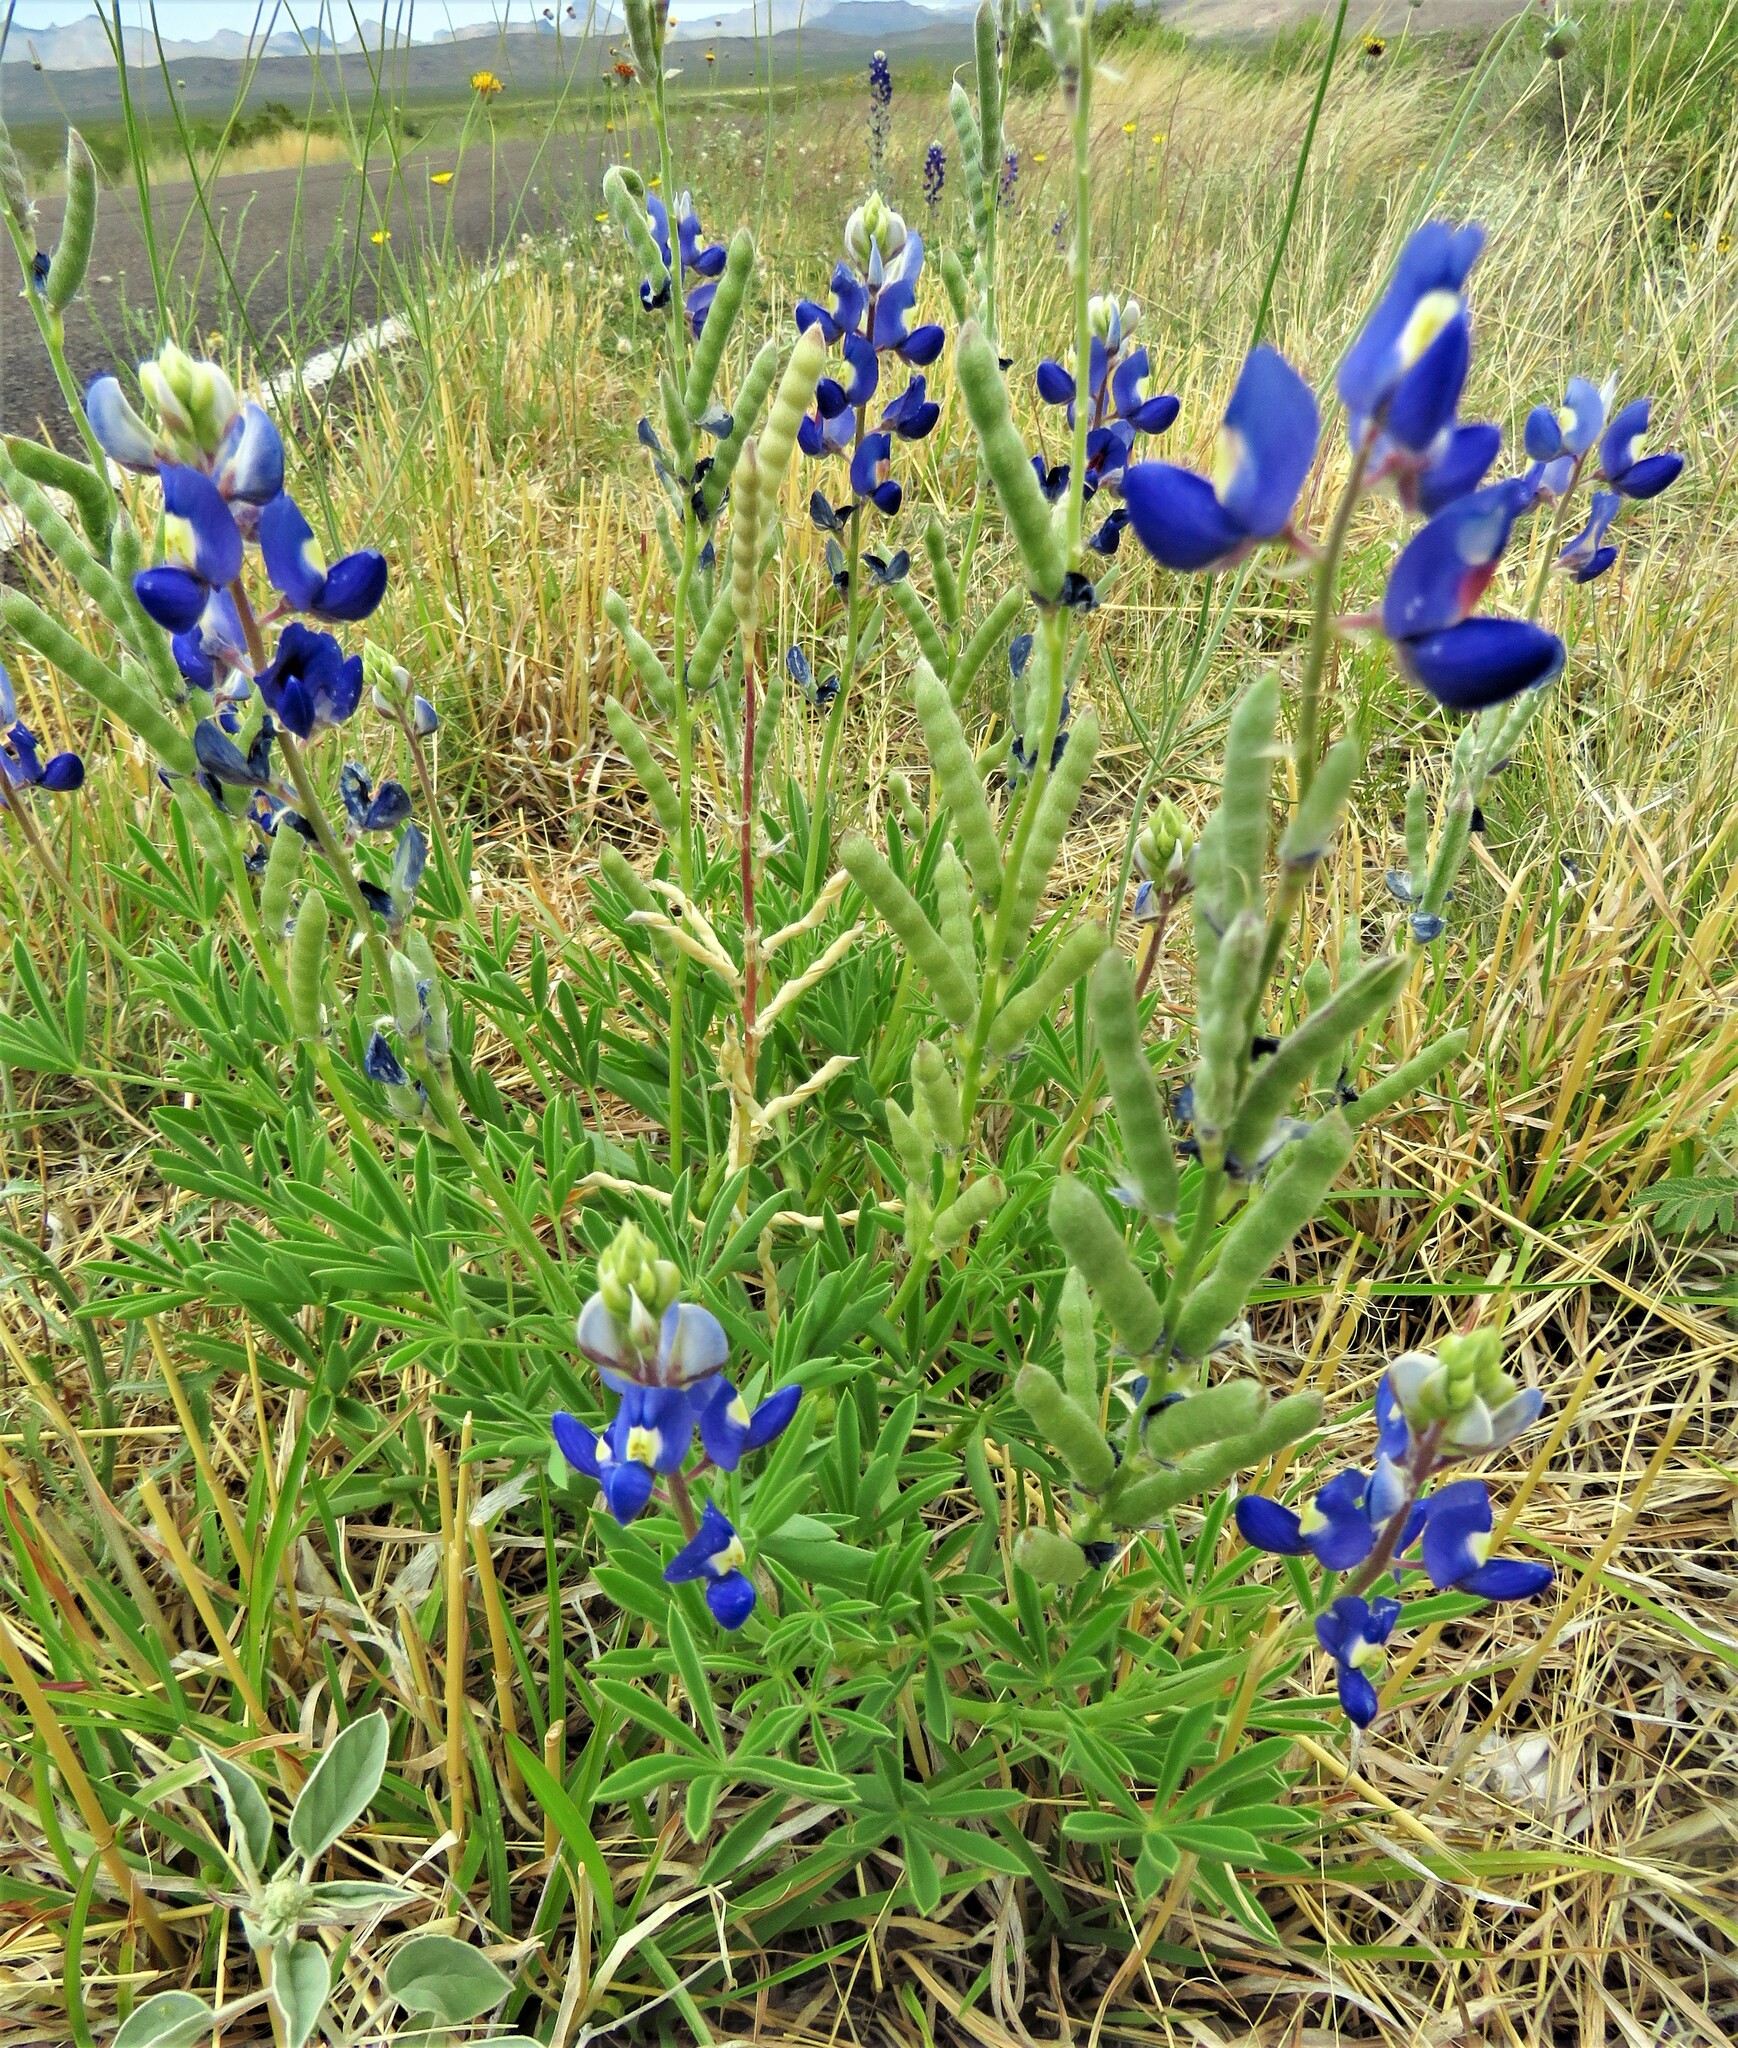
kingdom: Plantae
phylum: Tracheophyta
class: Magnoliopsida
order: Fabales
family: Fabaceae
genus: Lupinus
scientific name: Lupinus havardii
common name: Chisos bluebonnet
